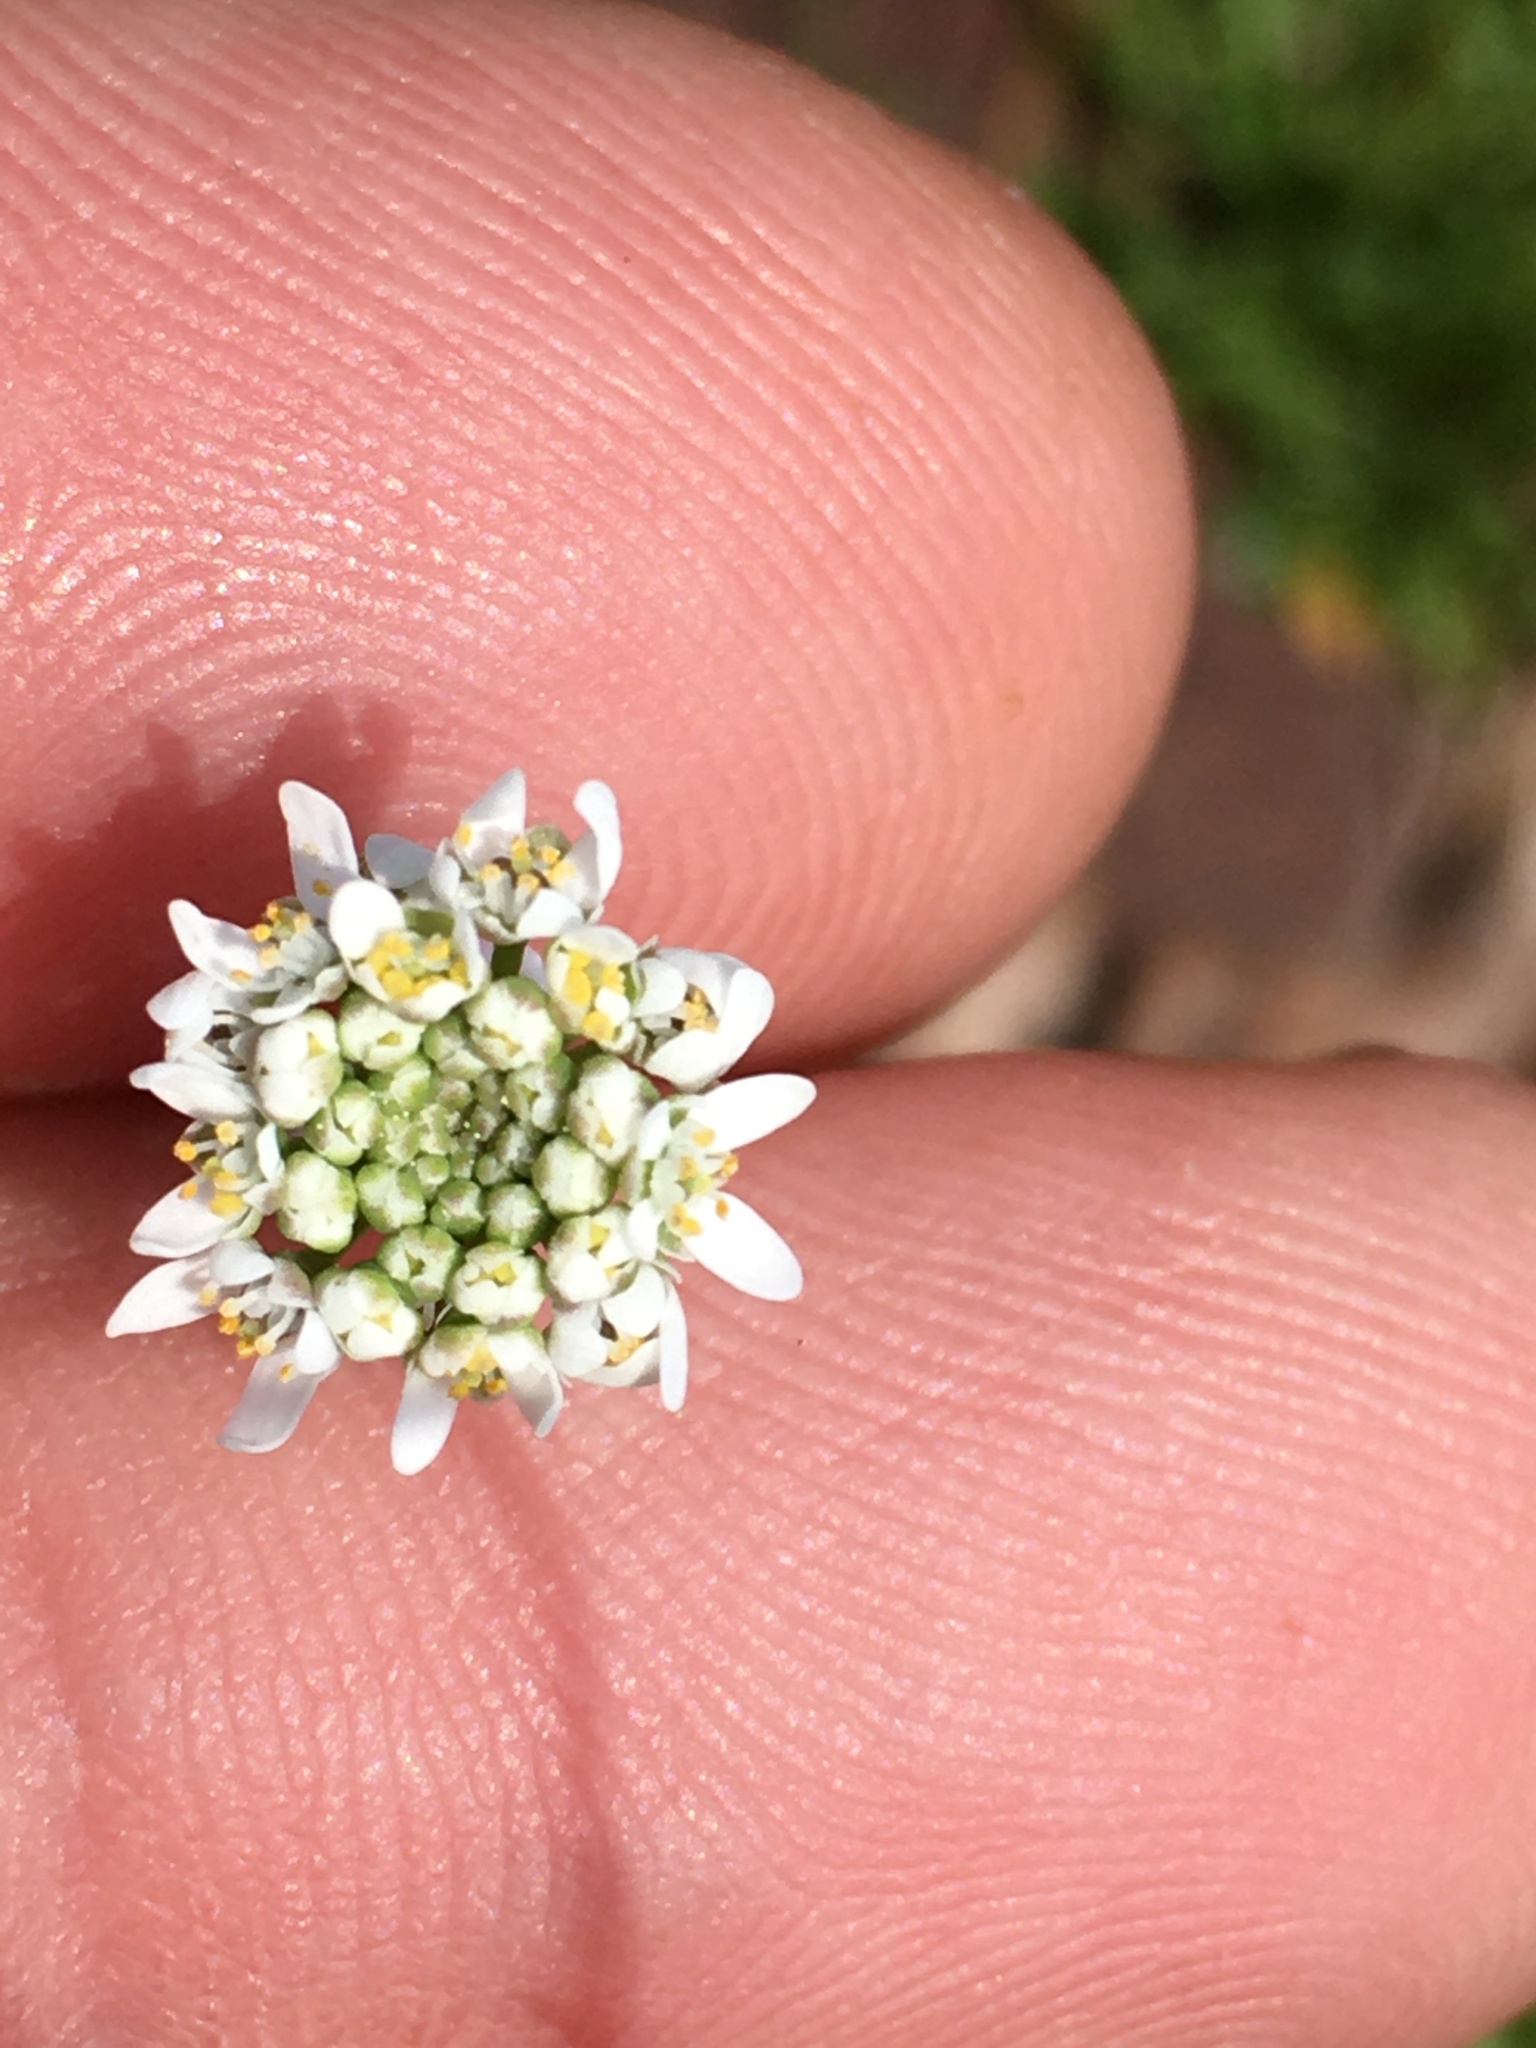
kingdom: Plantae
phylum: Tracheophyta
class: Magnoliopsida
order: Brassicales
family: Brassicaceae
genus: Teesdalia
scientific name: Teesdalia nudicaulis
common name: Shepherd's cress
